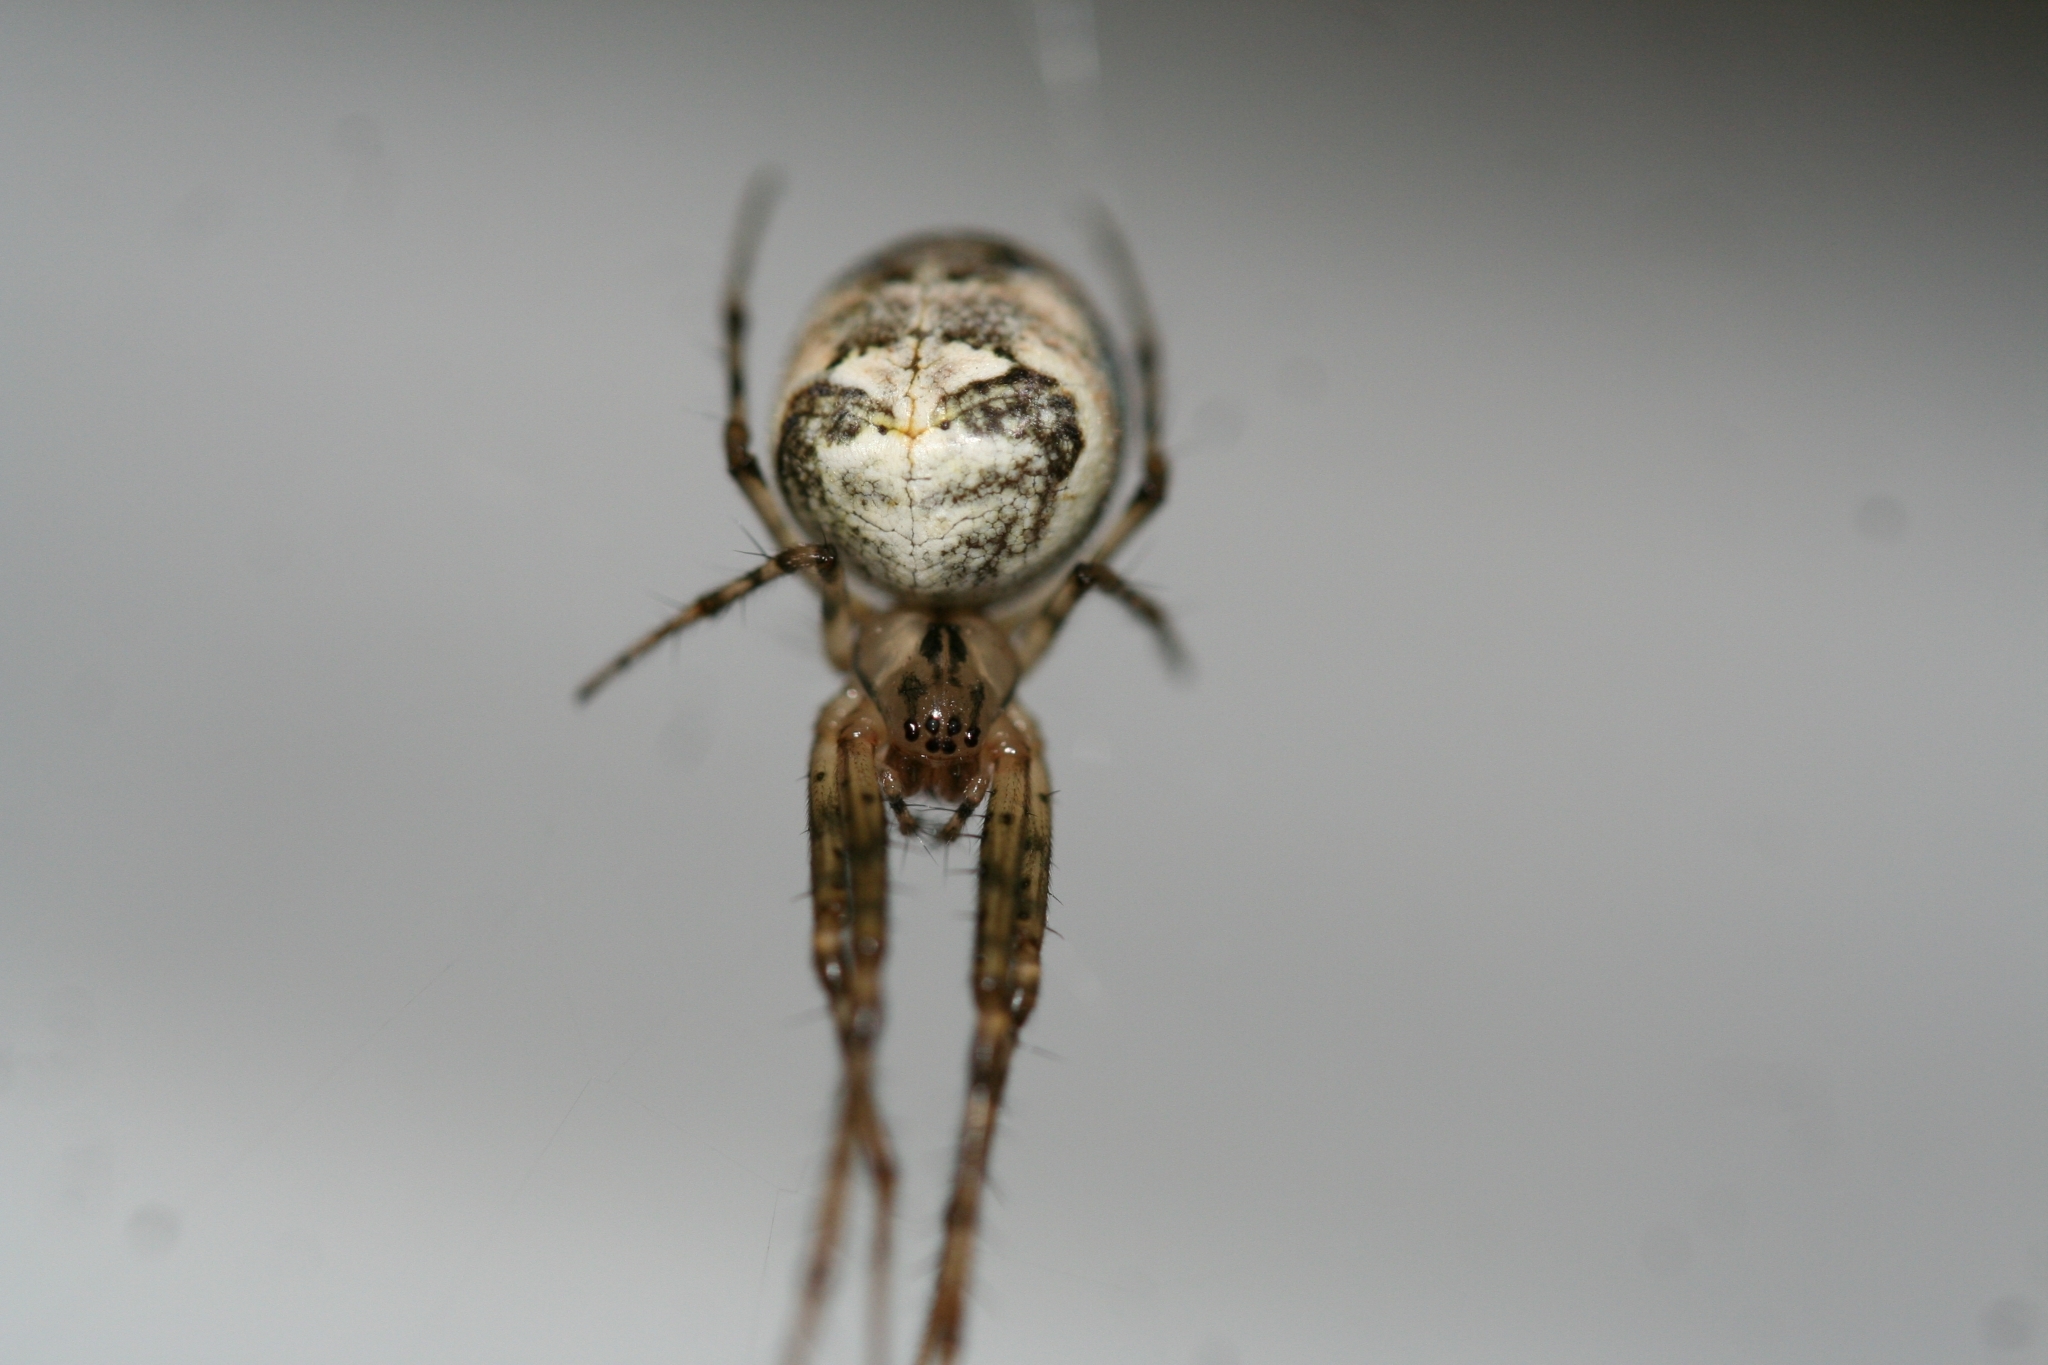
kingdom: Animalia
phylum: Arthropoda
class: Arachnida
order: Araneae
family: Tetragnathidae
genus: Metellina
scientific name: Metellina mengei
